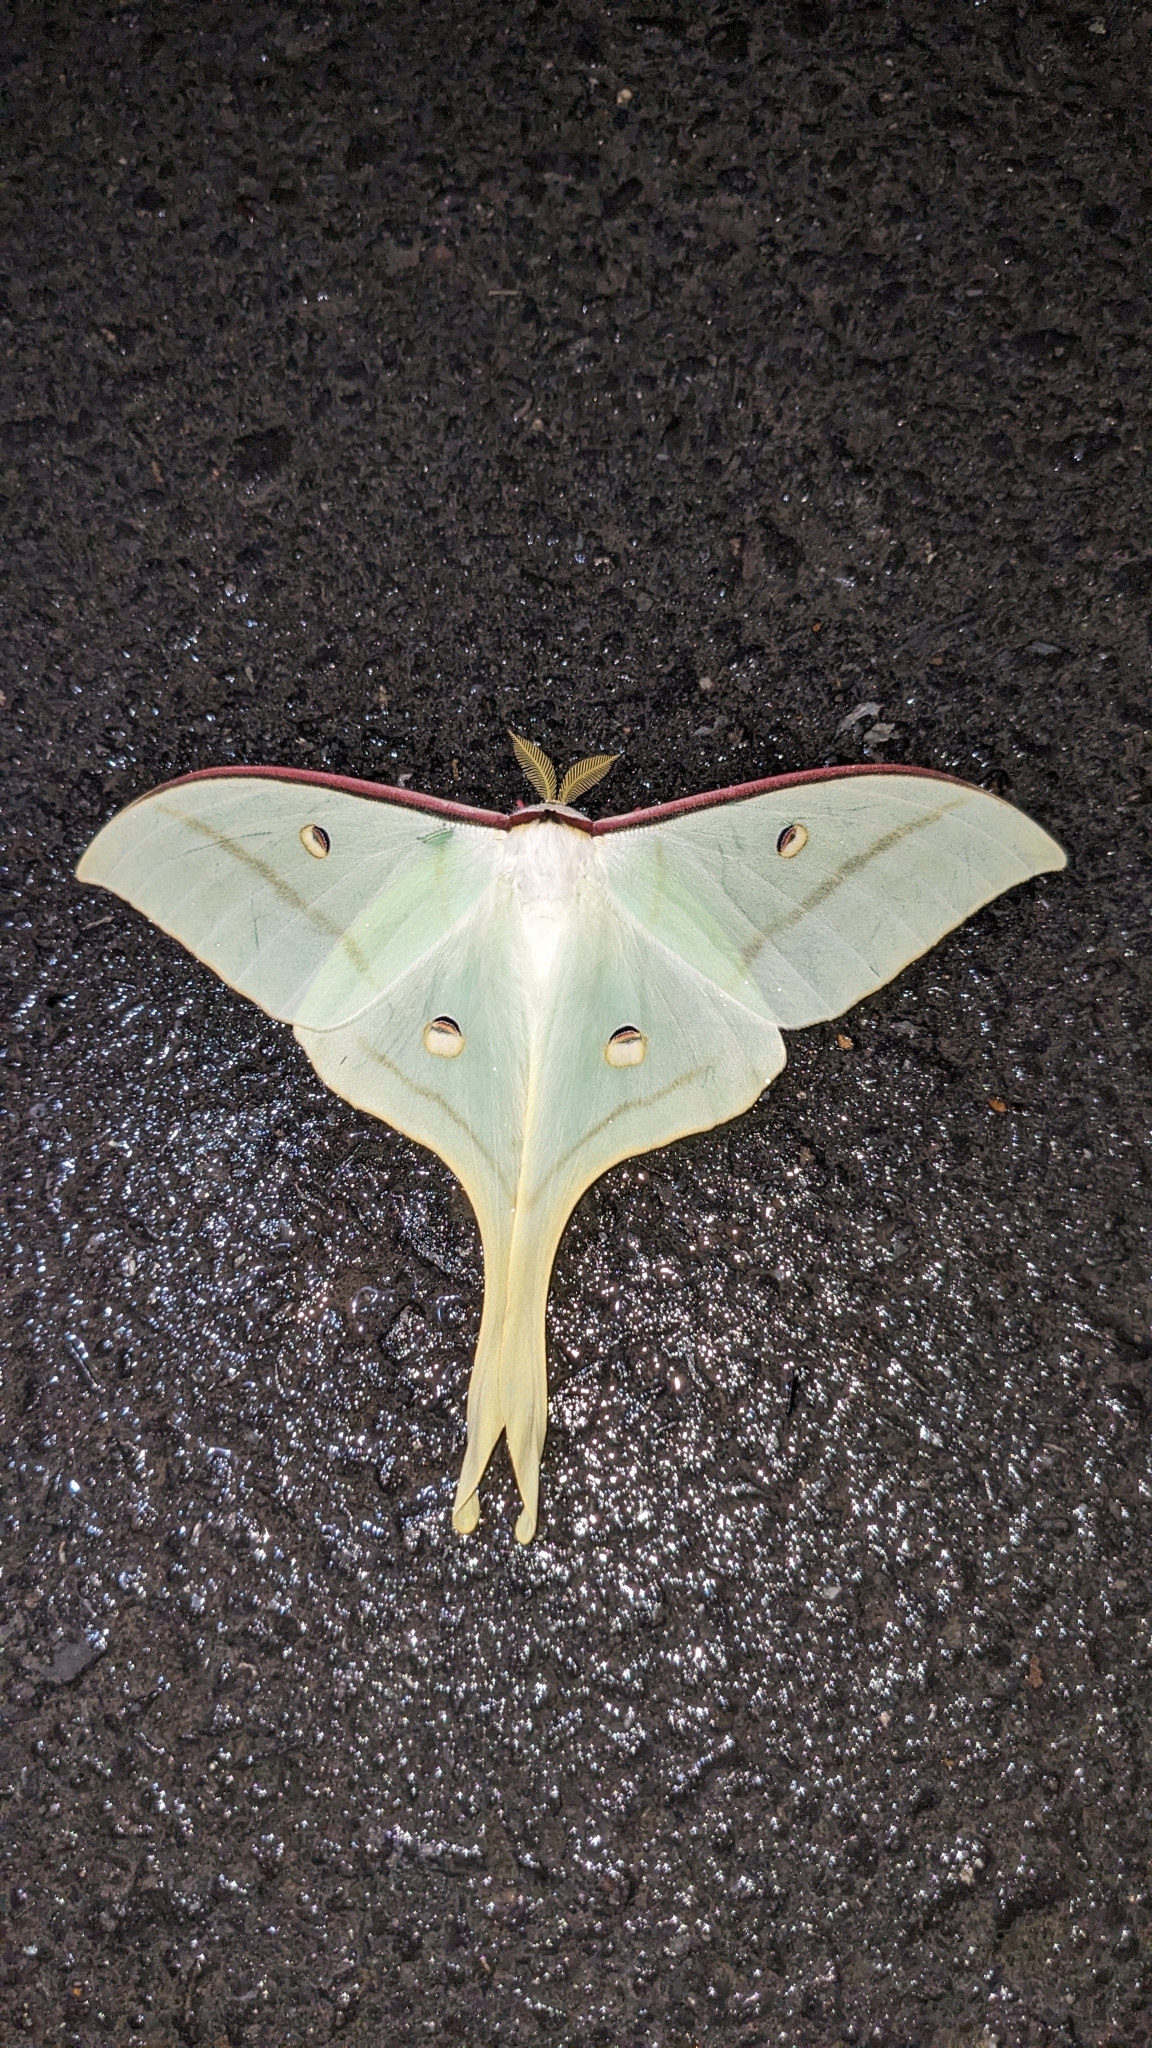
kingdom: Animalia
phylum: Arthropoda
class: Insecta
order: Lepidoptera
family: Saturniidae
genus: Actias
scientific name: Actias ningpoana
